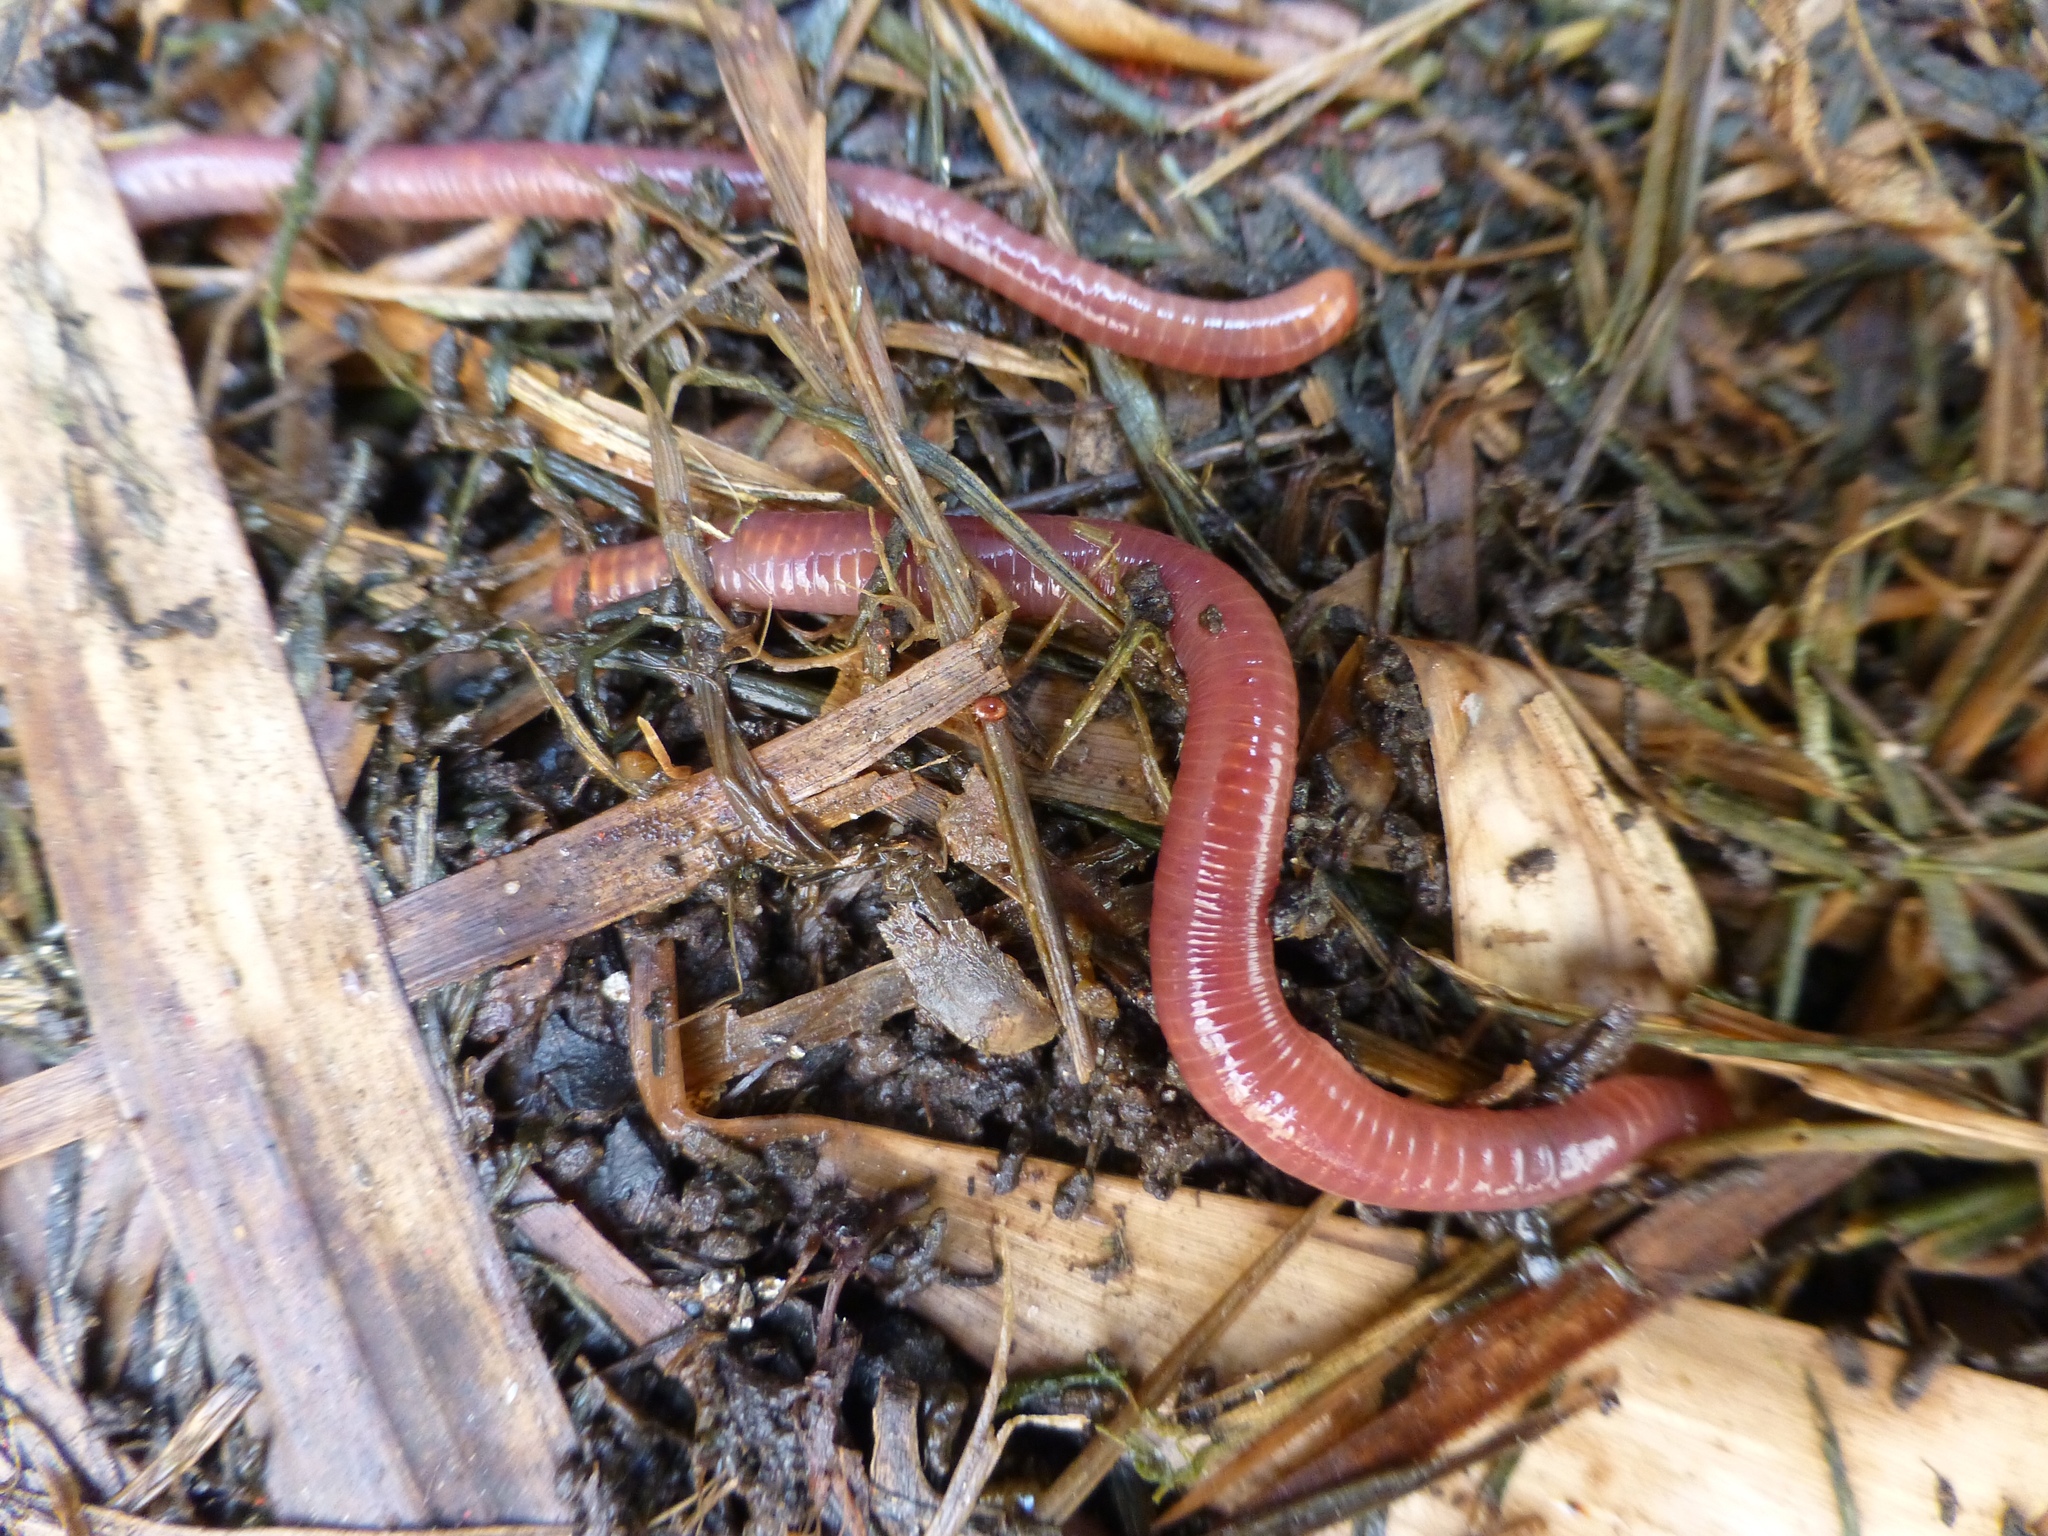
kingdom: Animalia
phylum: Annelida
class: Clitellata
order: Crassiclitellata
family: Lumbricidae
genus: Lumbricus
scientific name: Lumbricus terrestris
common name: Common earthworm
